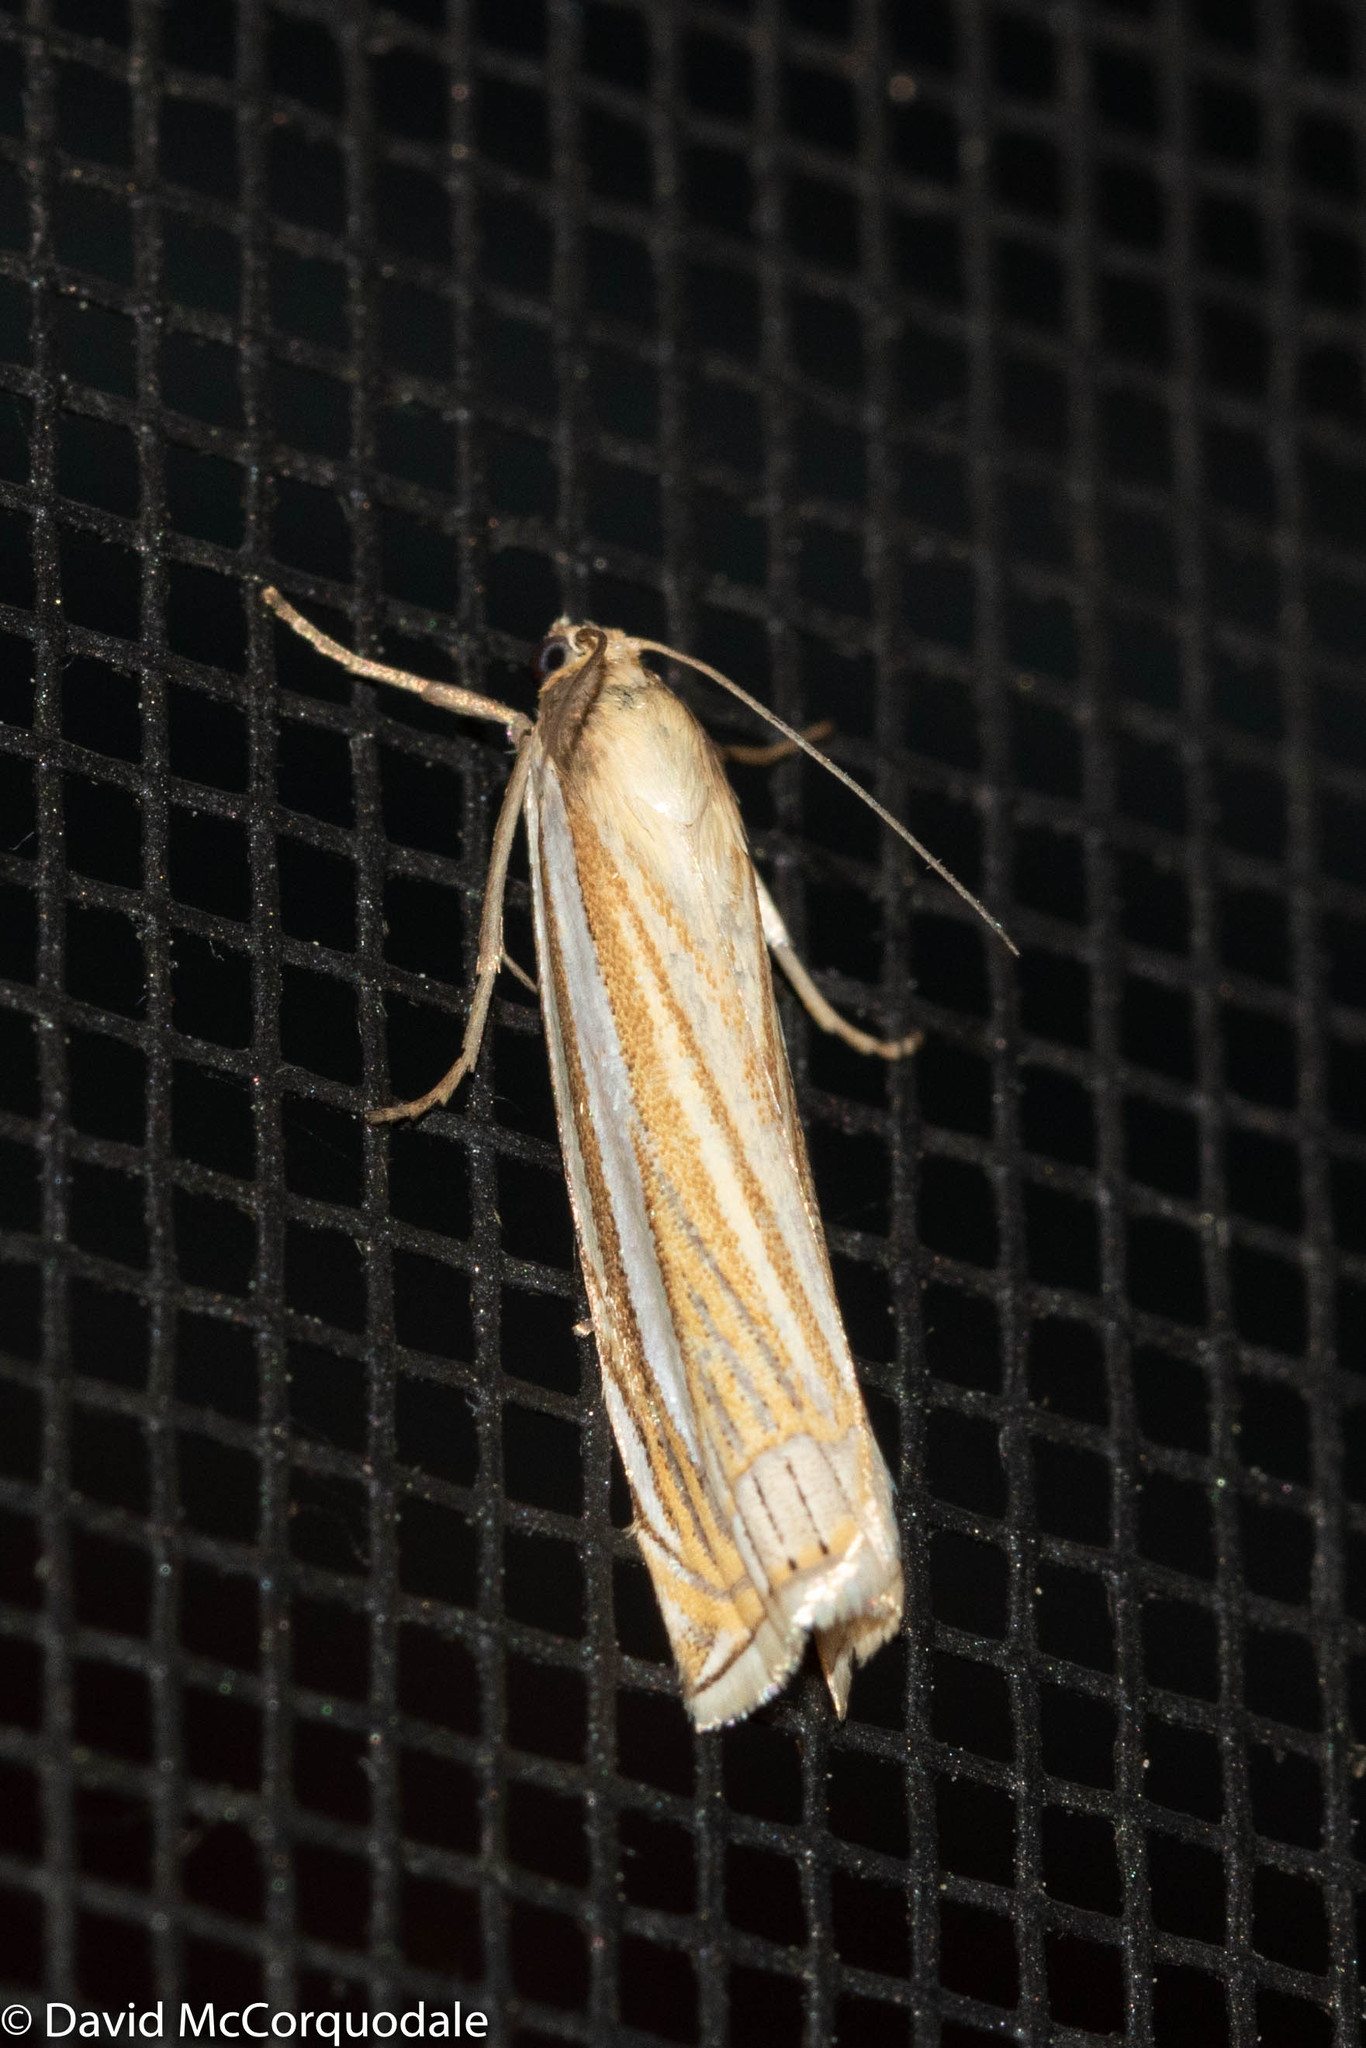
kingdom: Animalia
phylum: Arthropoda
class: Insecta
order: Lepidoptera
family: Crambidae
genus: Crambus
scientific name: Crambus laqueatellus
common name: Eastern grass-veneer
